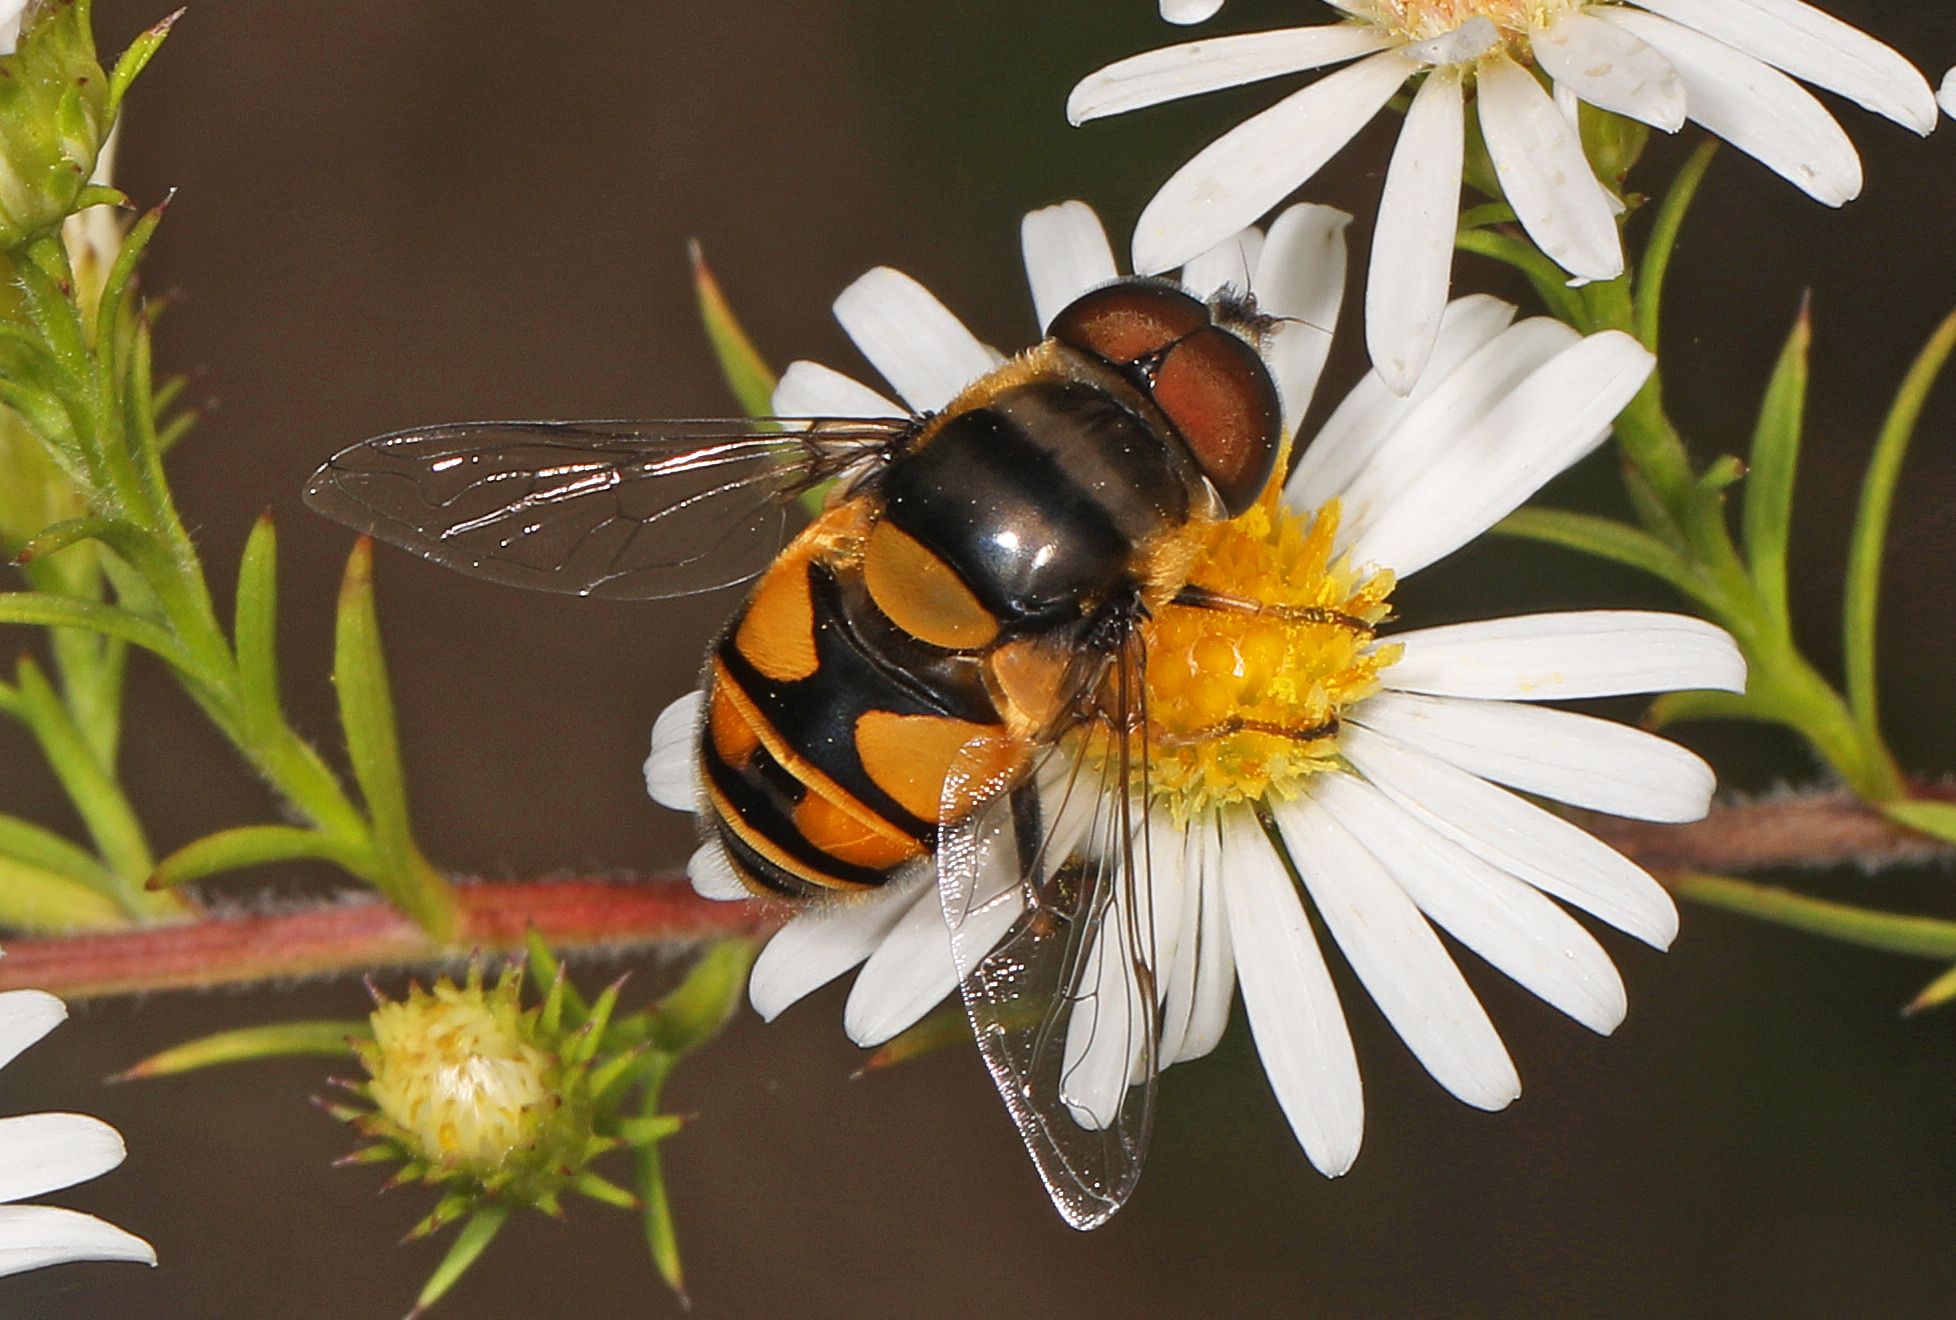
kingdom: Animalia
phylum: Arthropoda
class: Insecta
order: Diptera
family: Syrphidae
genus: Eristalis
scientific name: Eristalis transversa
